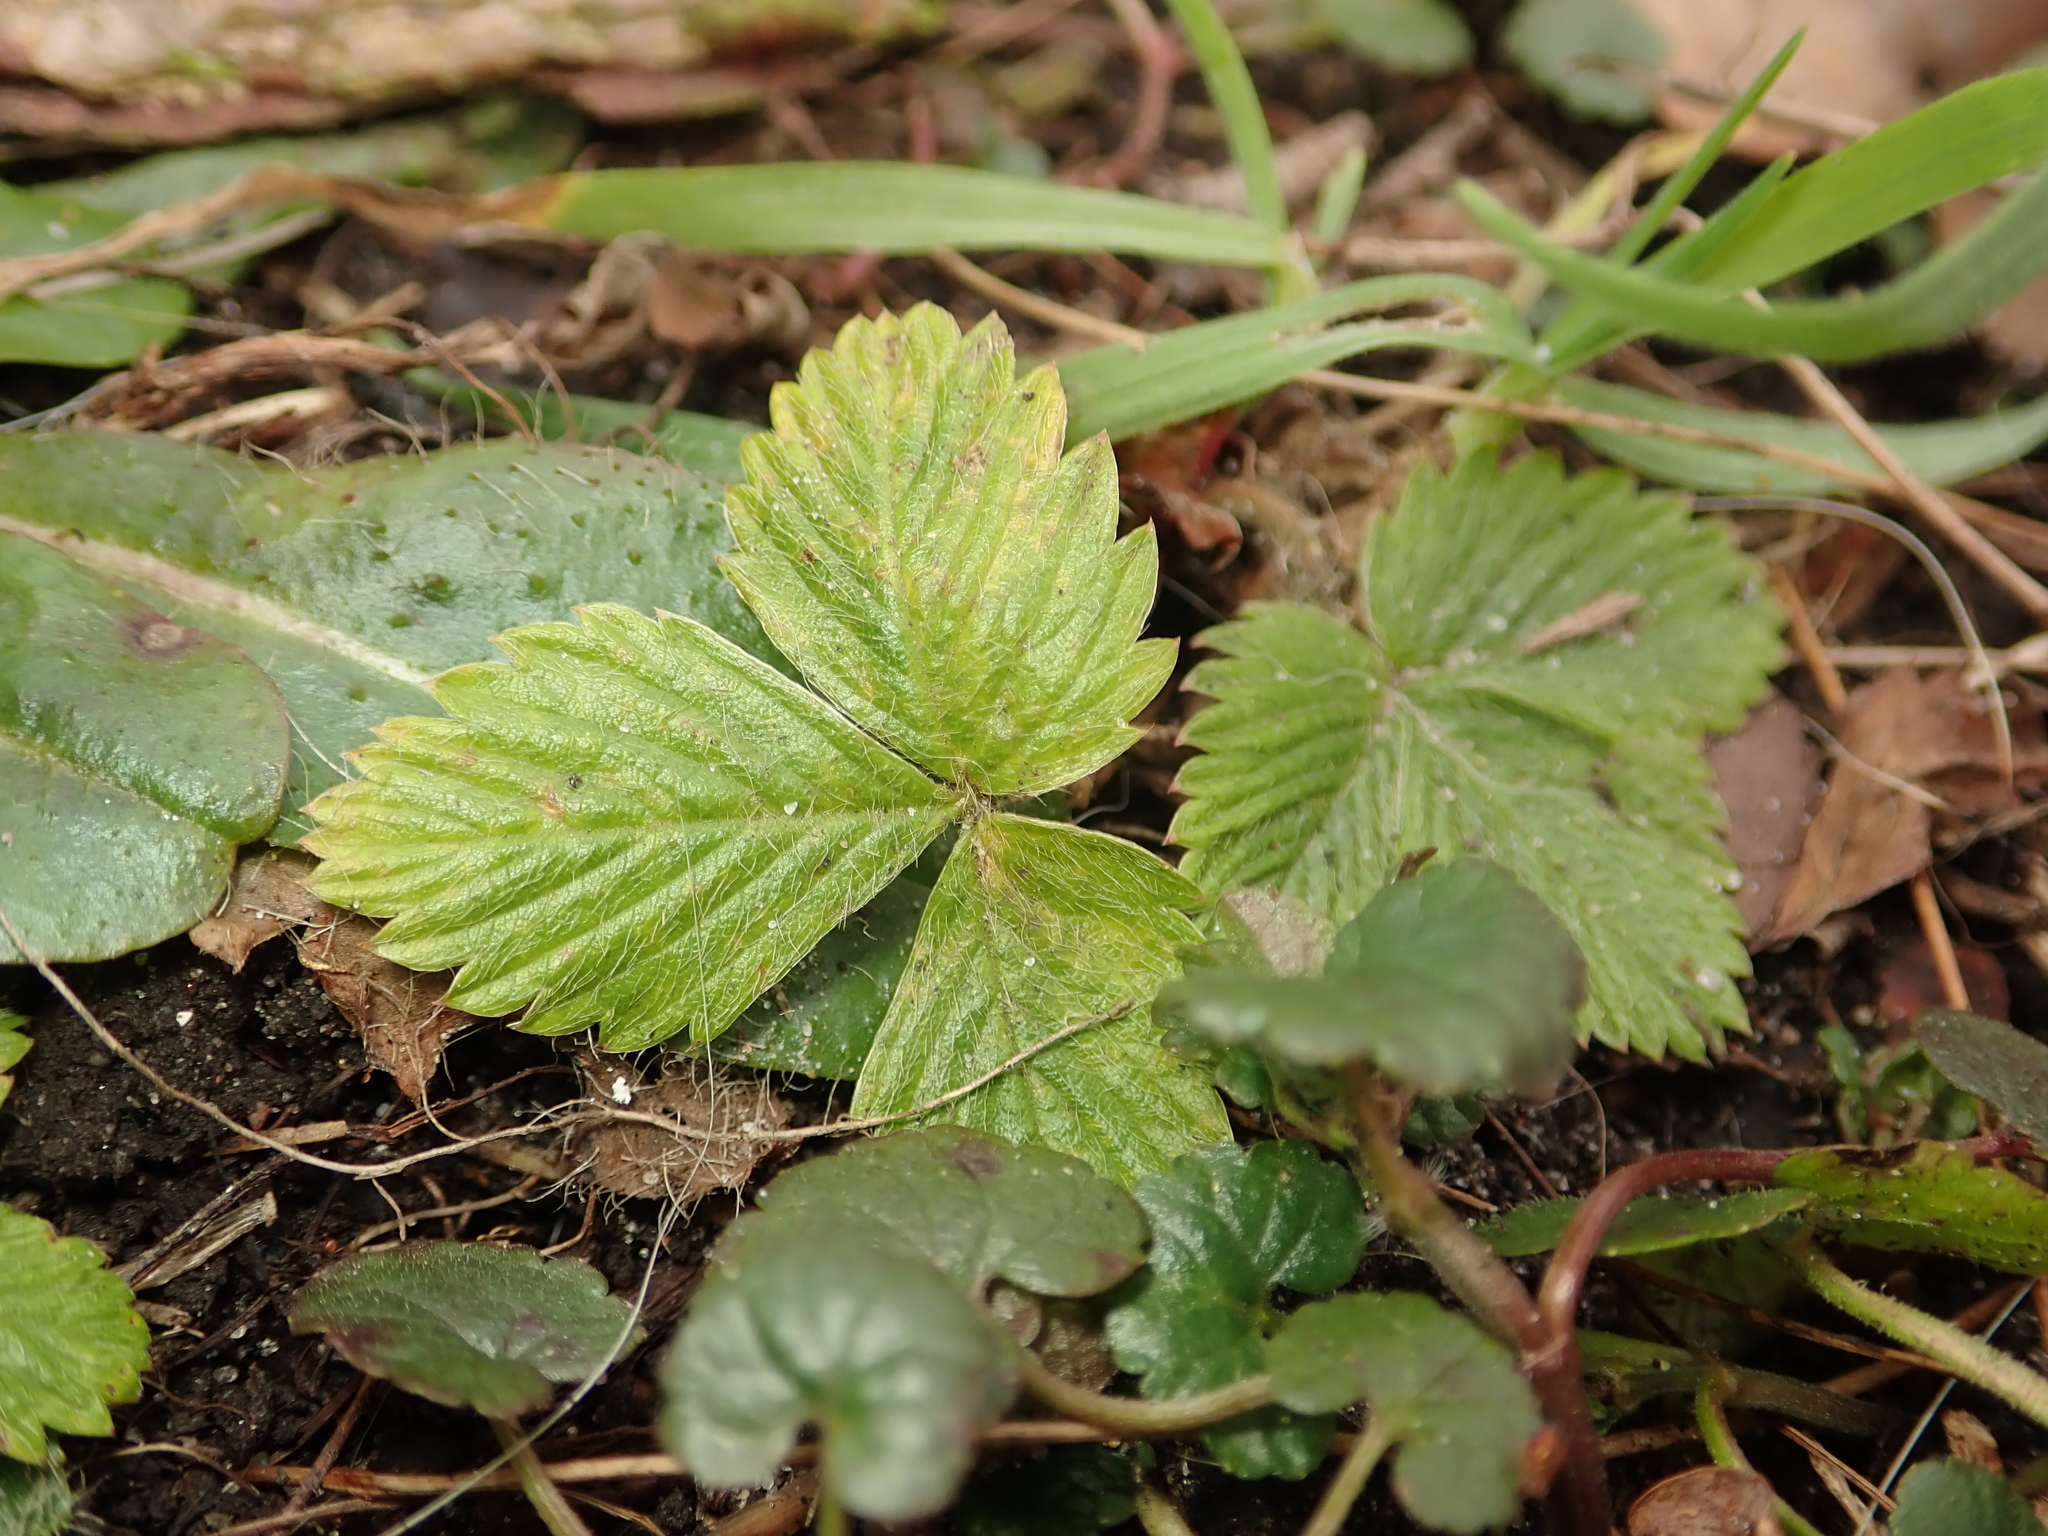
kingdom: Plantae
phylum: Tracheophyta
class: Magnoliopsida
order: Rosales
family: Rosaceae
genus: Fragaria
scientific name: Fragaria vesca
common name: Wild strawberry
